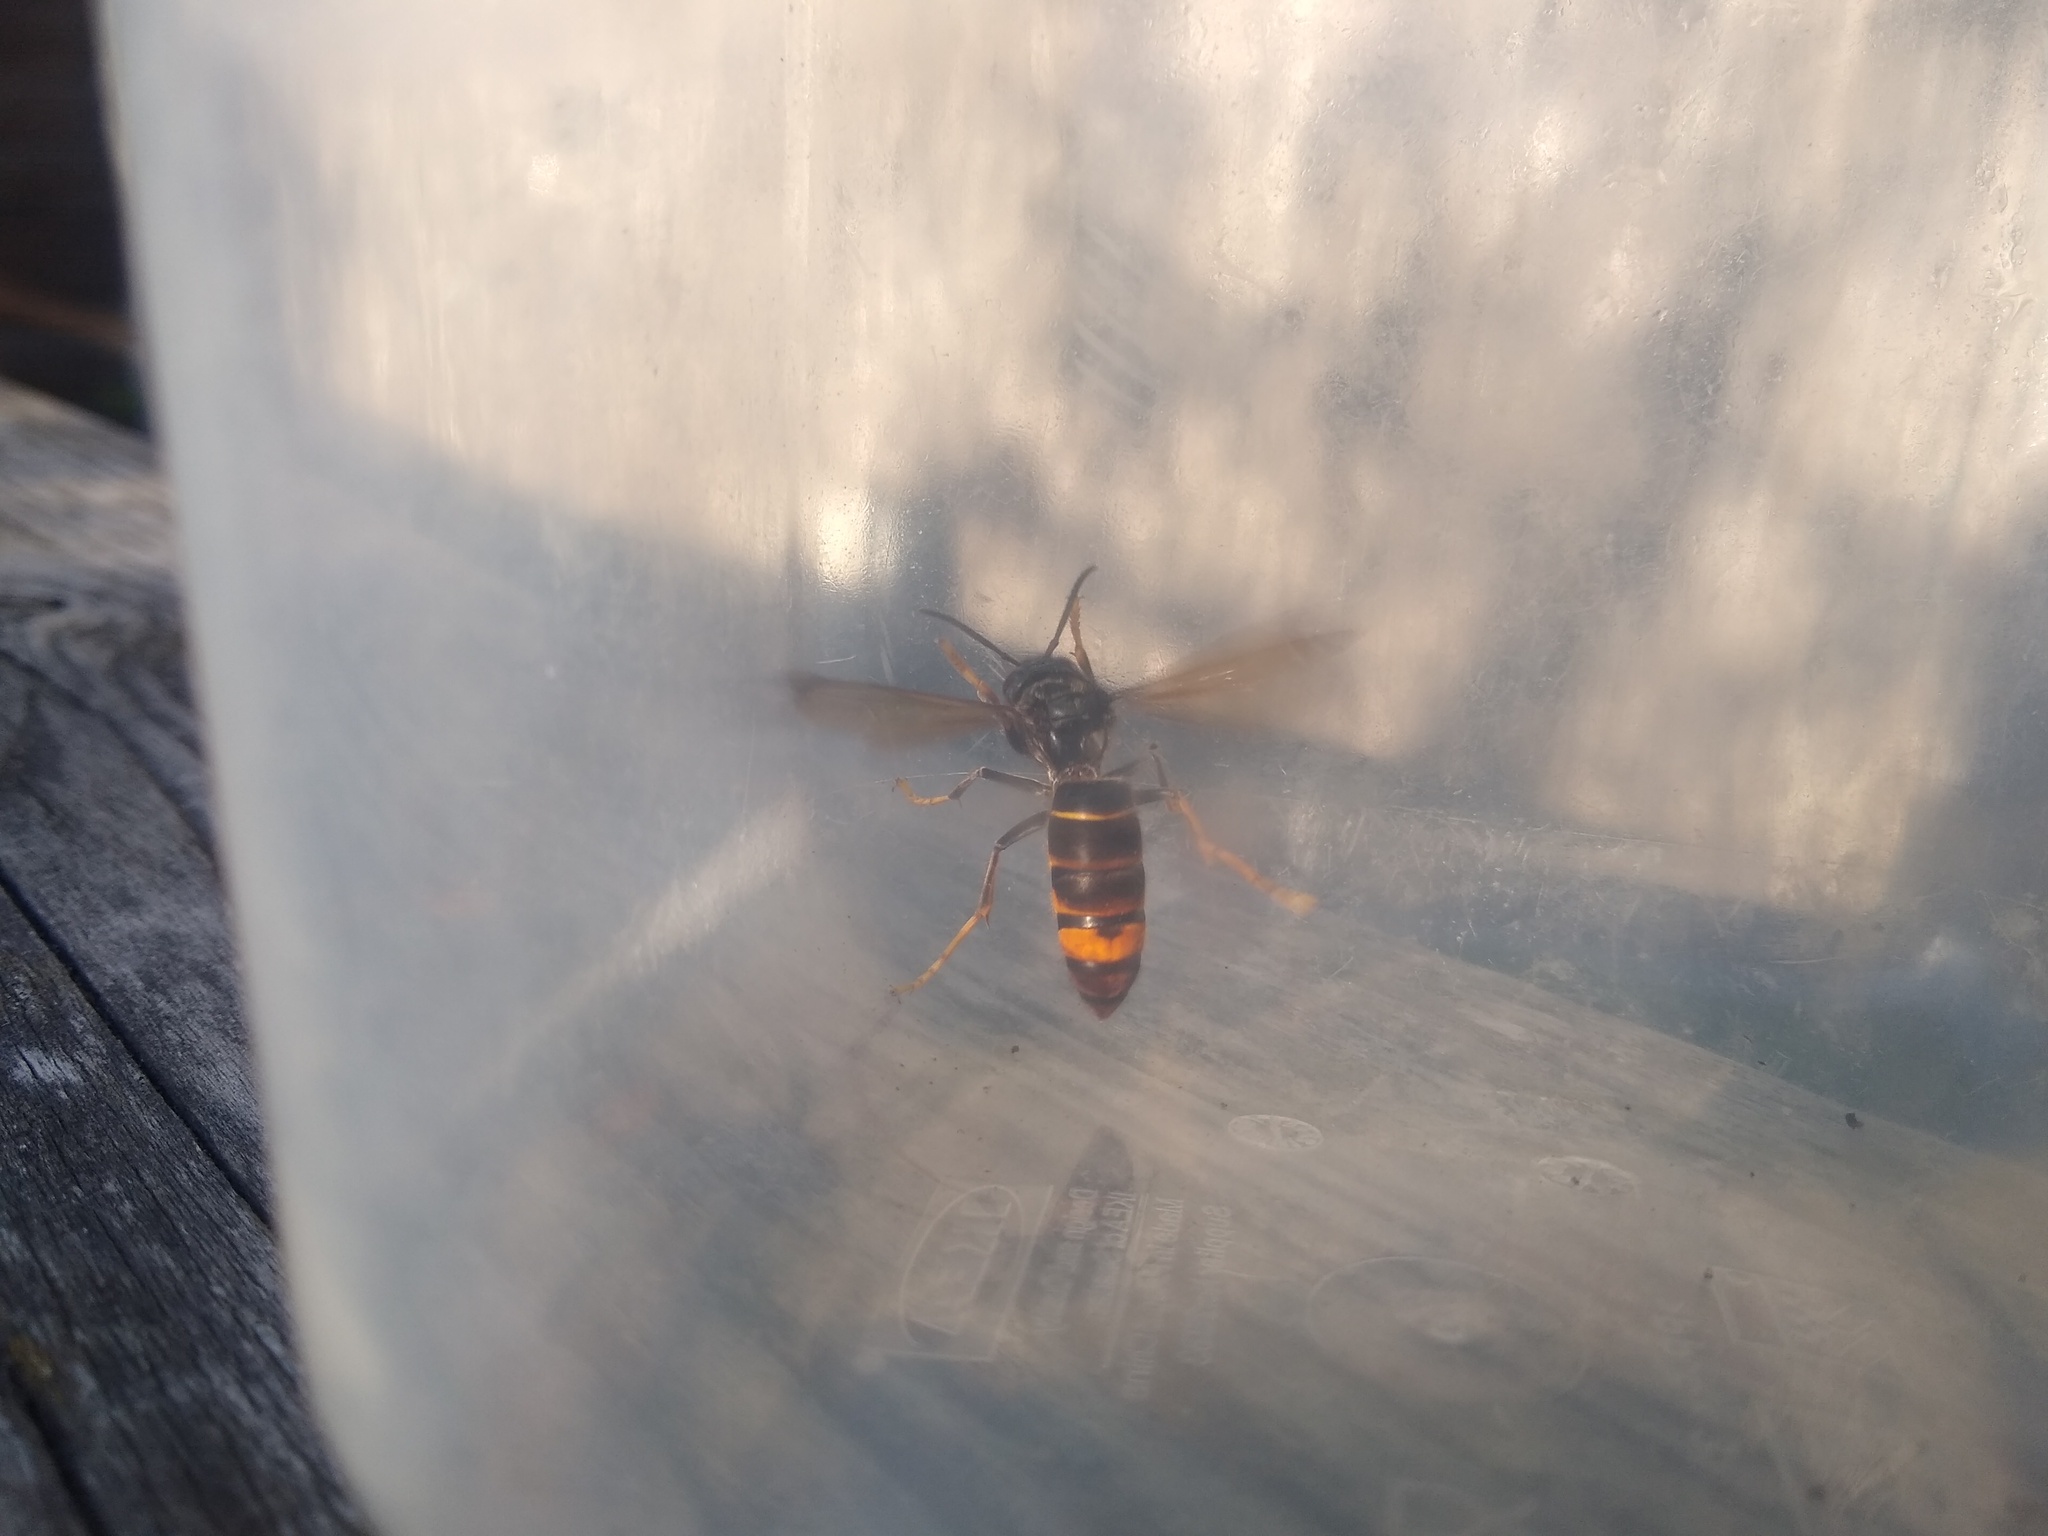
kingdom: Animalia
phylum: Arthropoda
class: Insecta
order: Hymenoptera
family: Vespidae
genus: Vespa
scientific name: Vespa velutina
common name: Asian hornet
